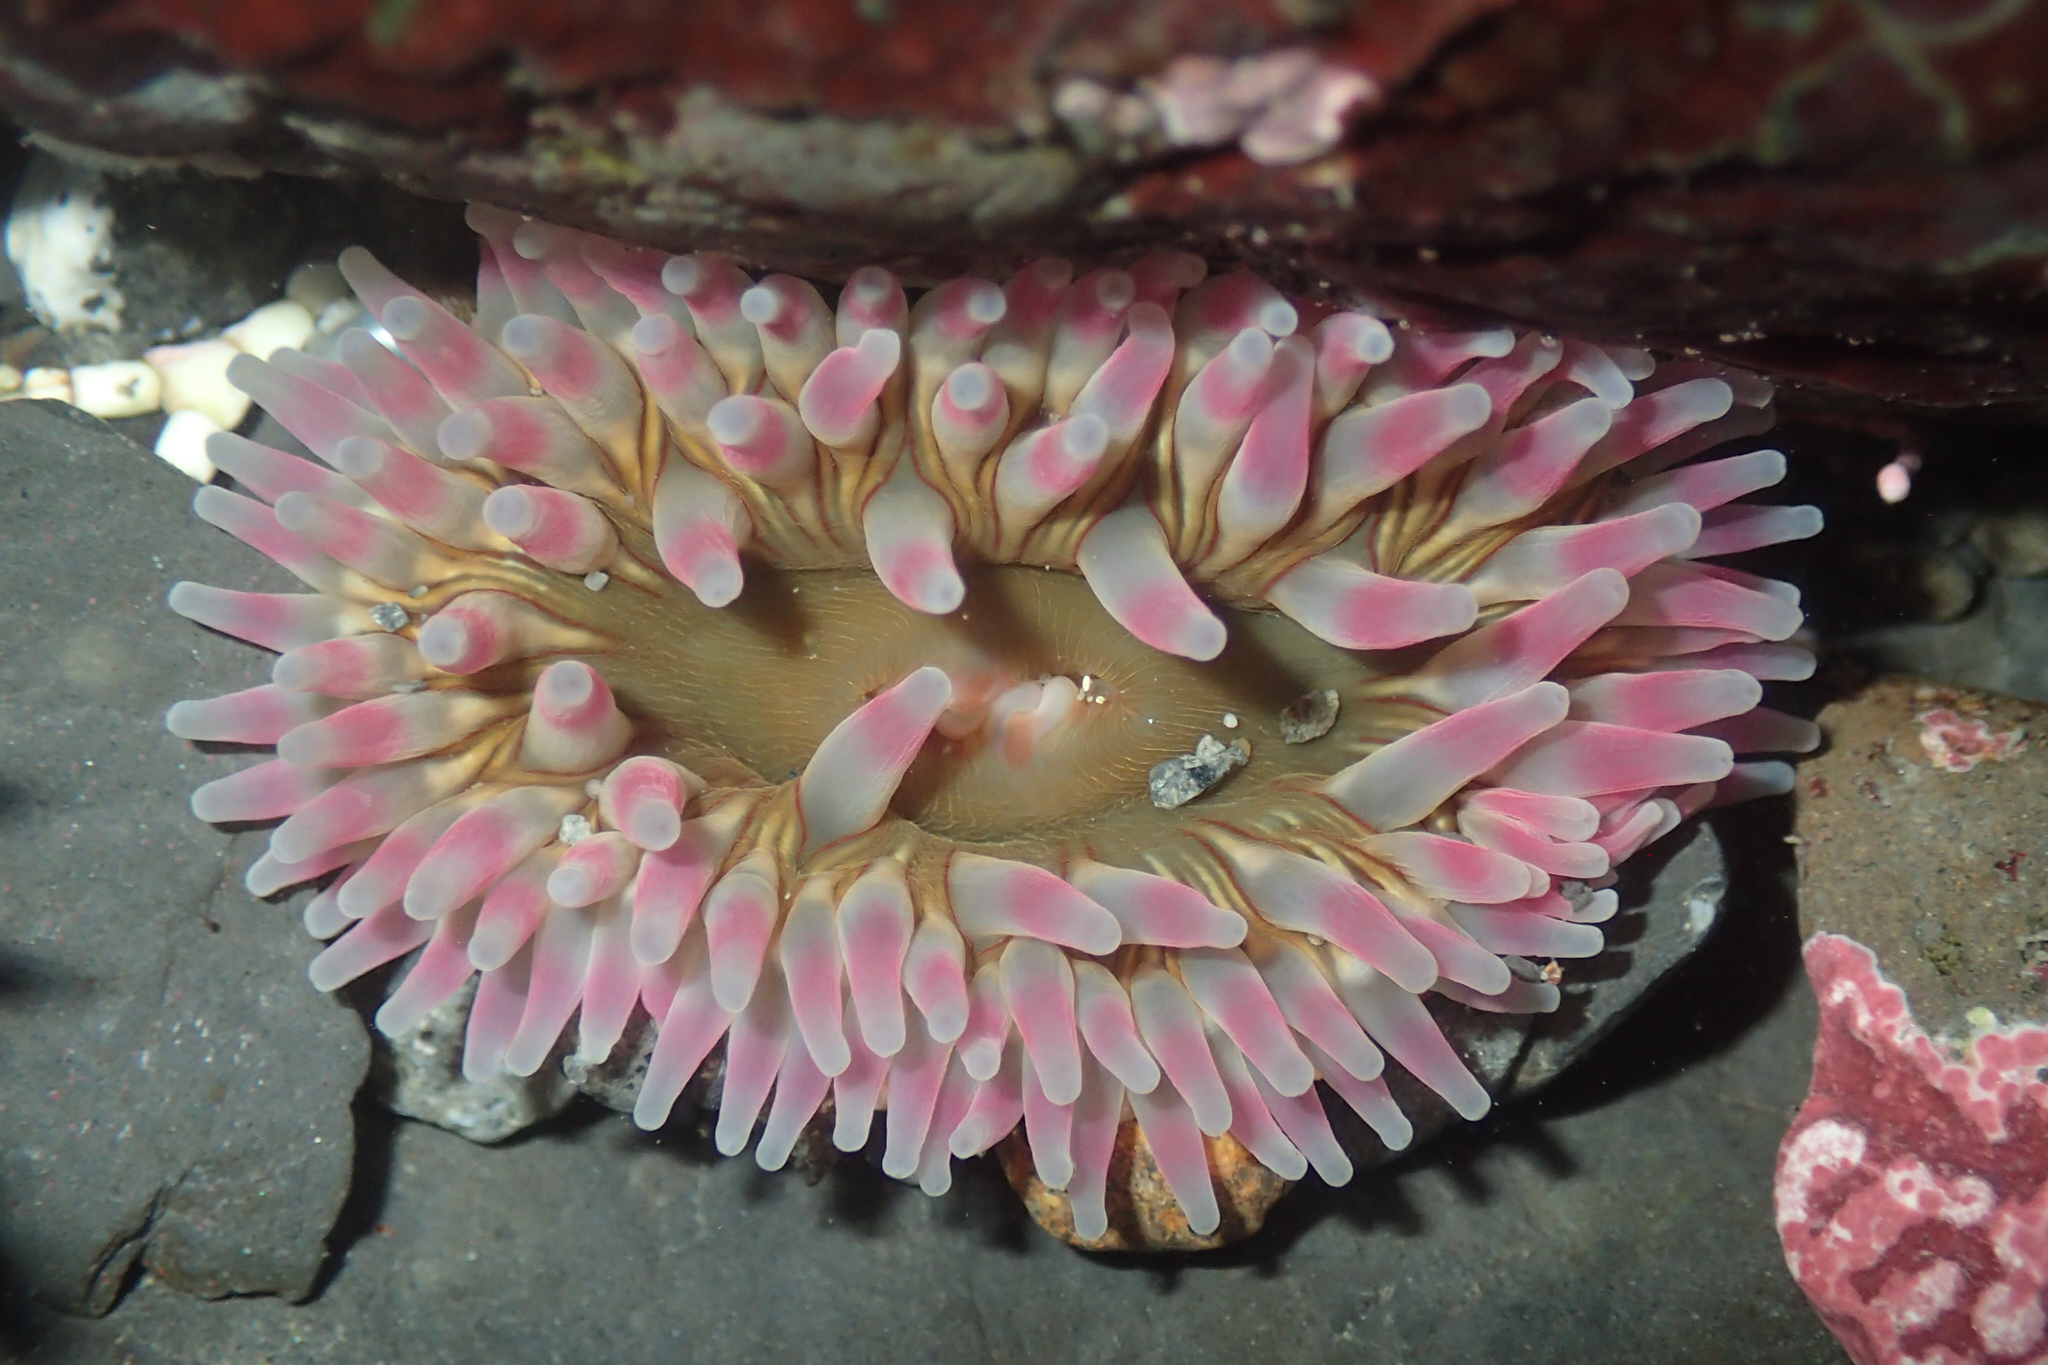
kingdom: Animalia
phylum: Cnidaria
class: Anthozoa
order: Actiniaria
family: Actiniidae
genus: Urticina
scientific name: Urticina clandestina
